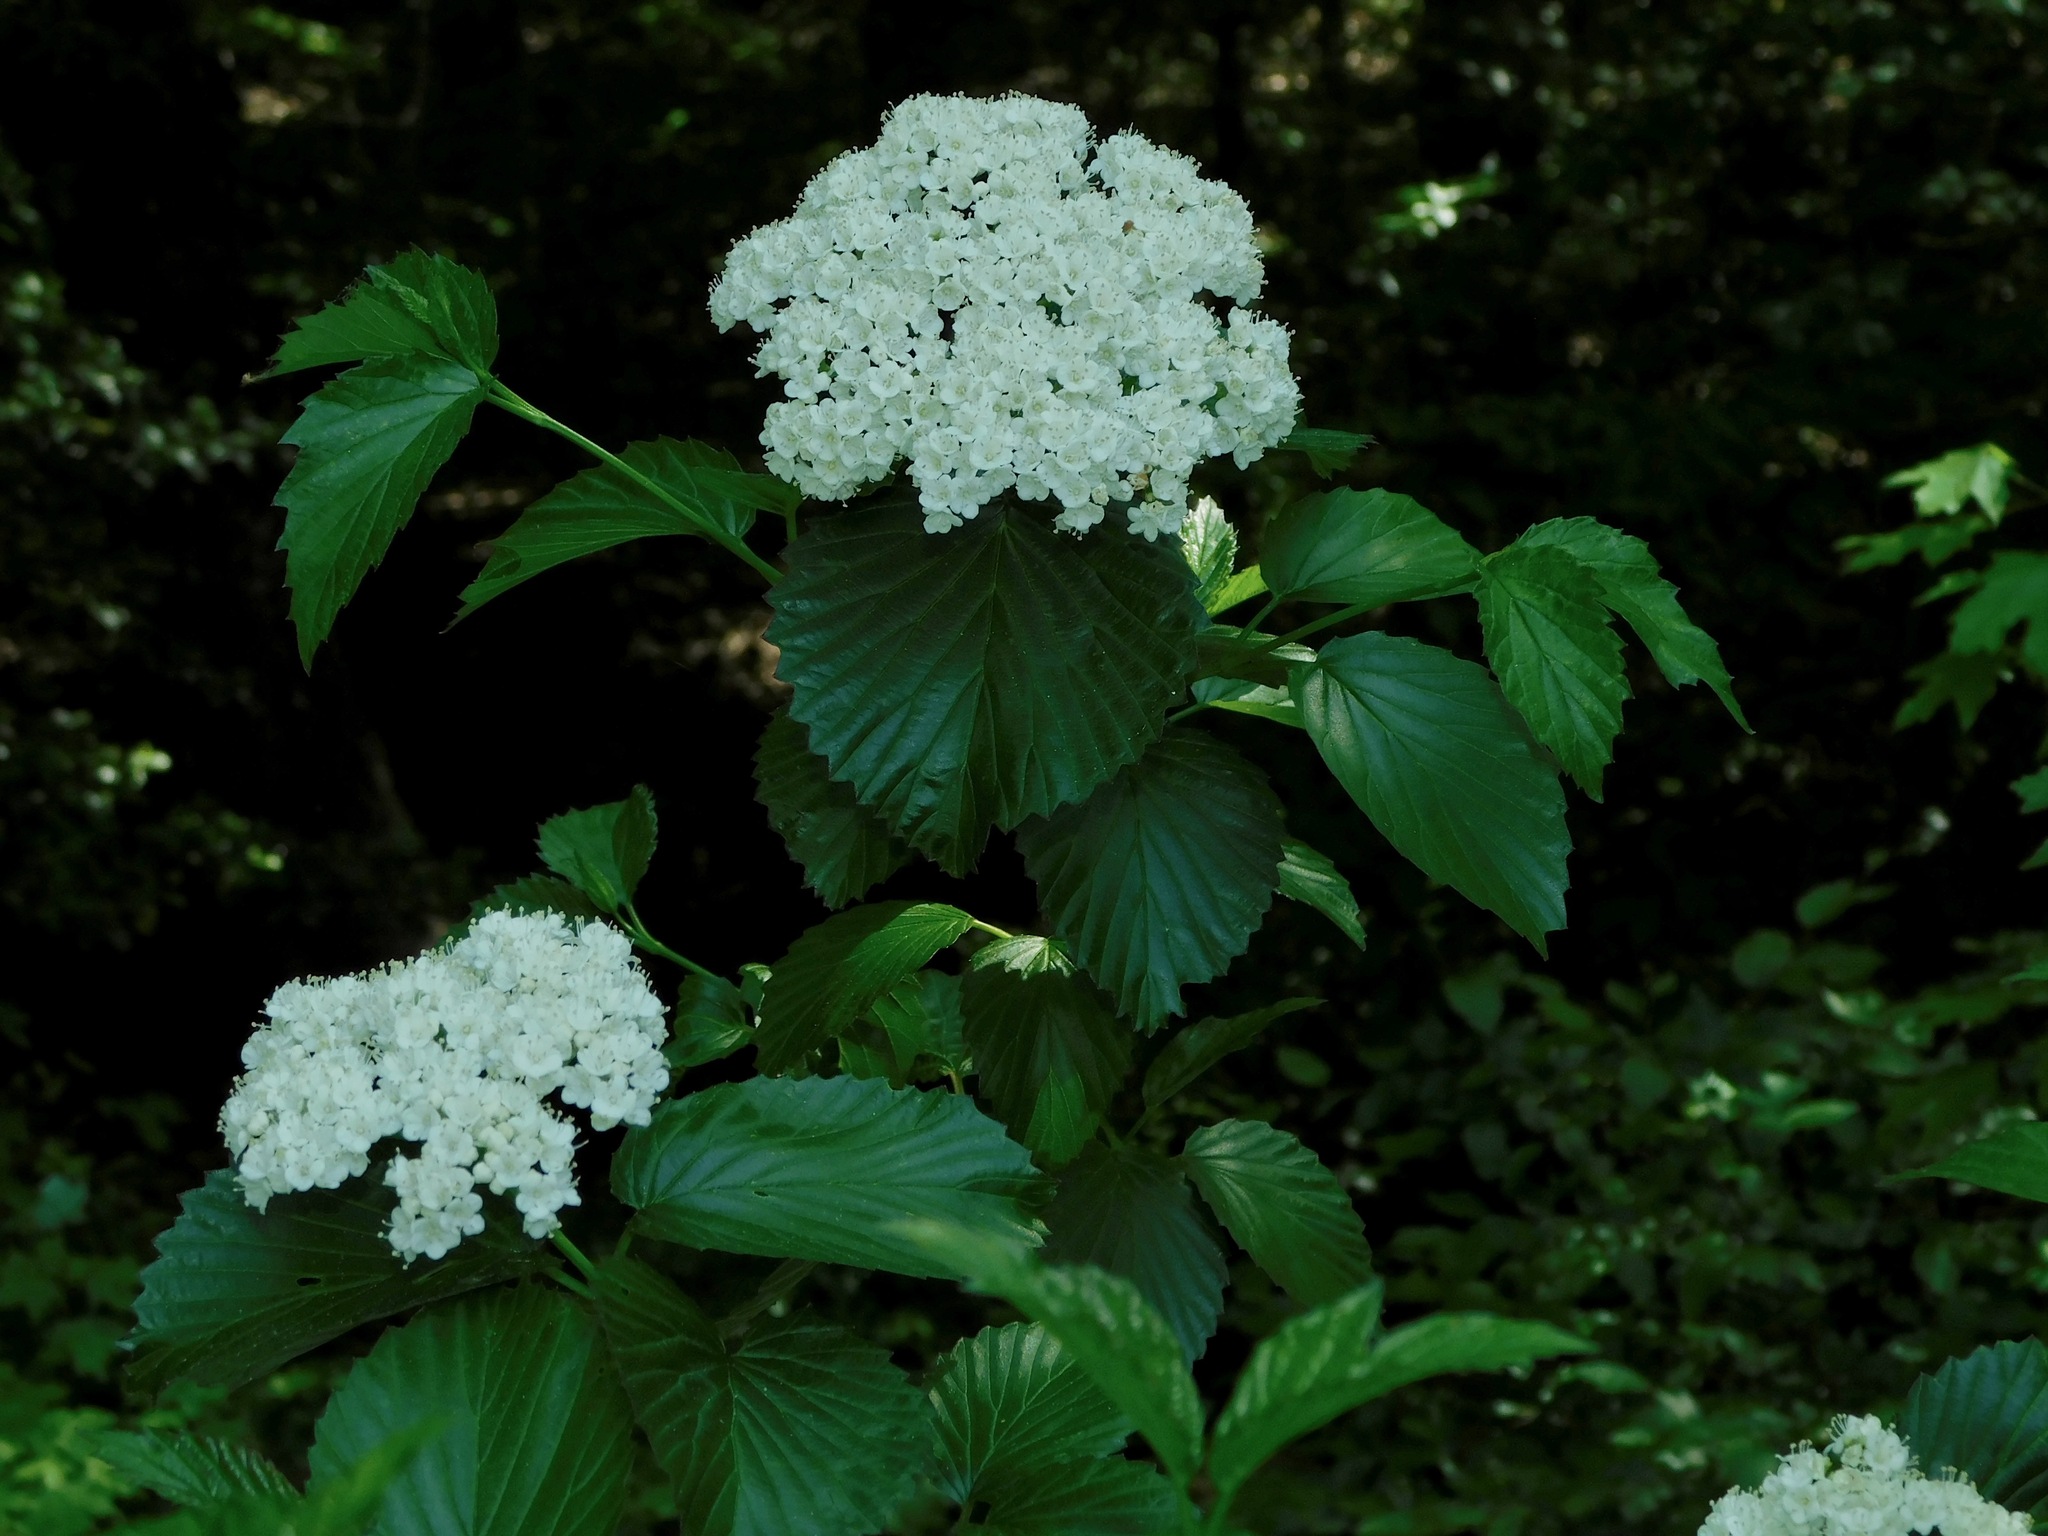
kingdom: Plantae
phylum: Tracheophyta
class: Magnoliopsida
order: Dipsacales
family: Viburnaceae
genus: Viburnum
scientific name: Viburnum recognitum
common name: Northern arrow-wood
